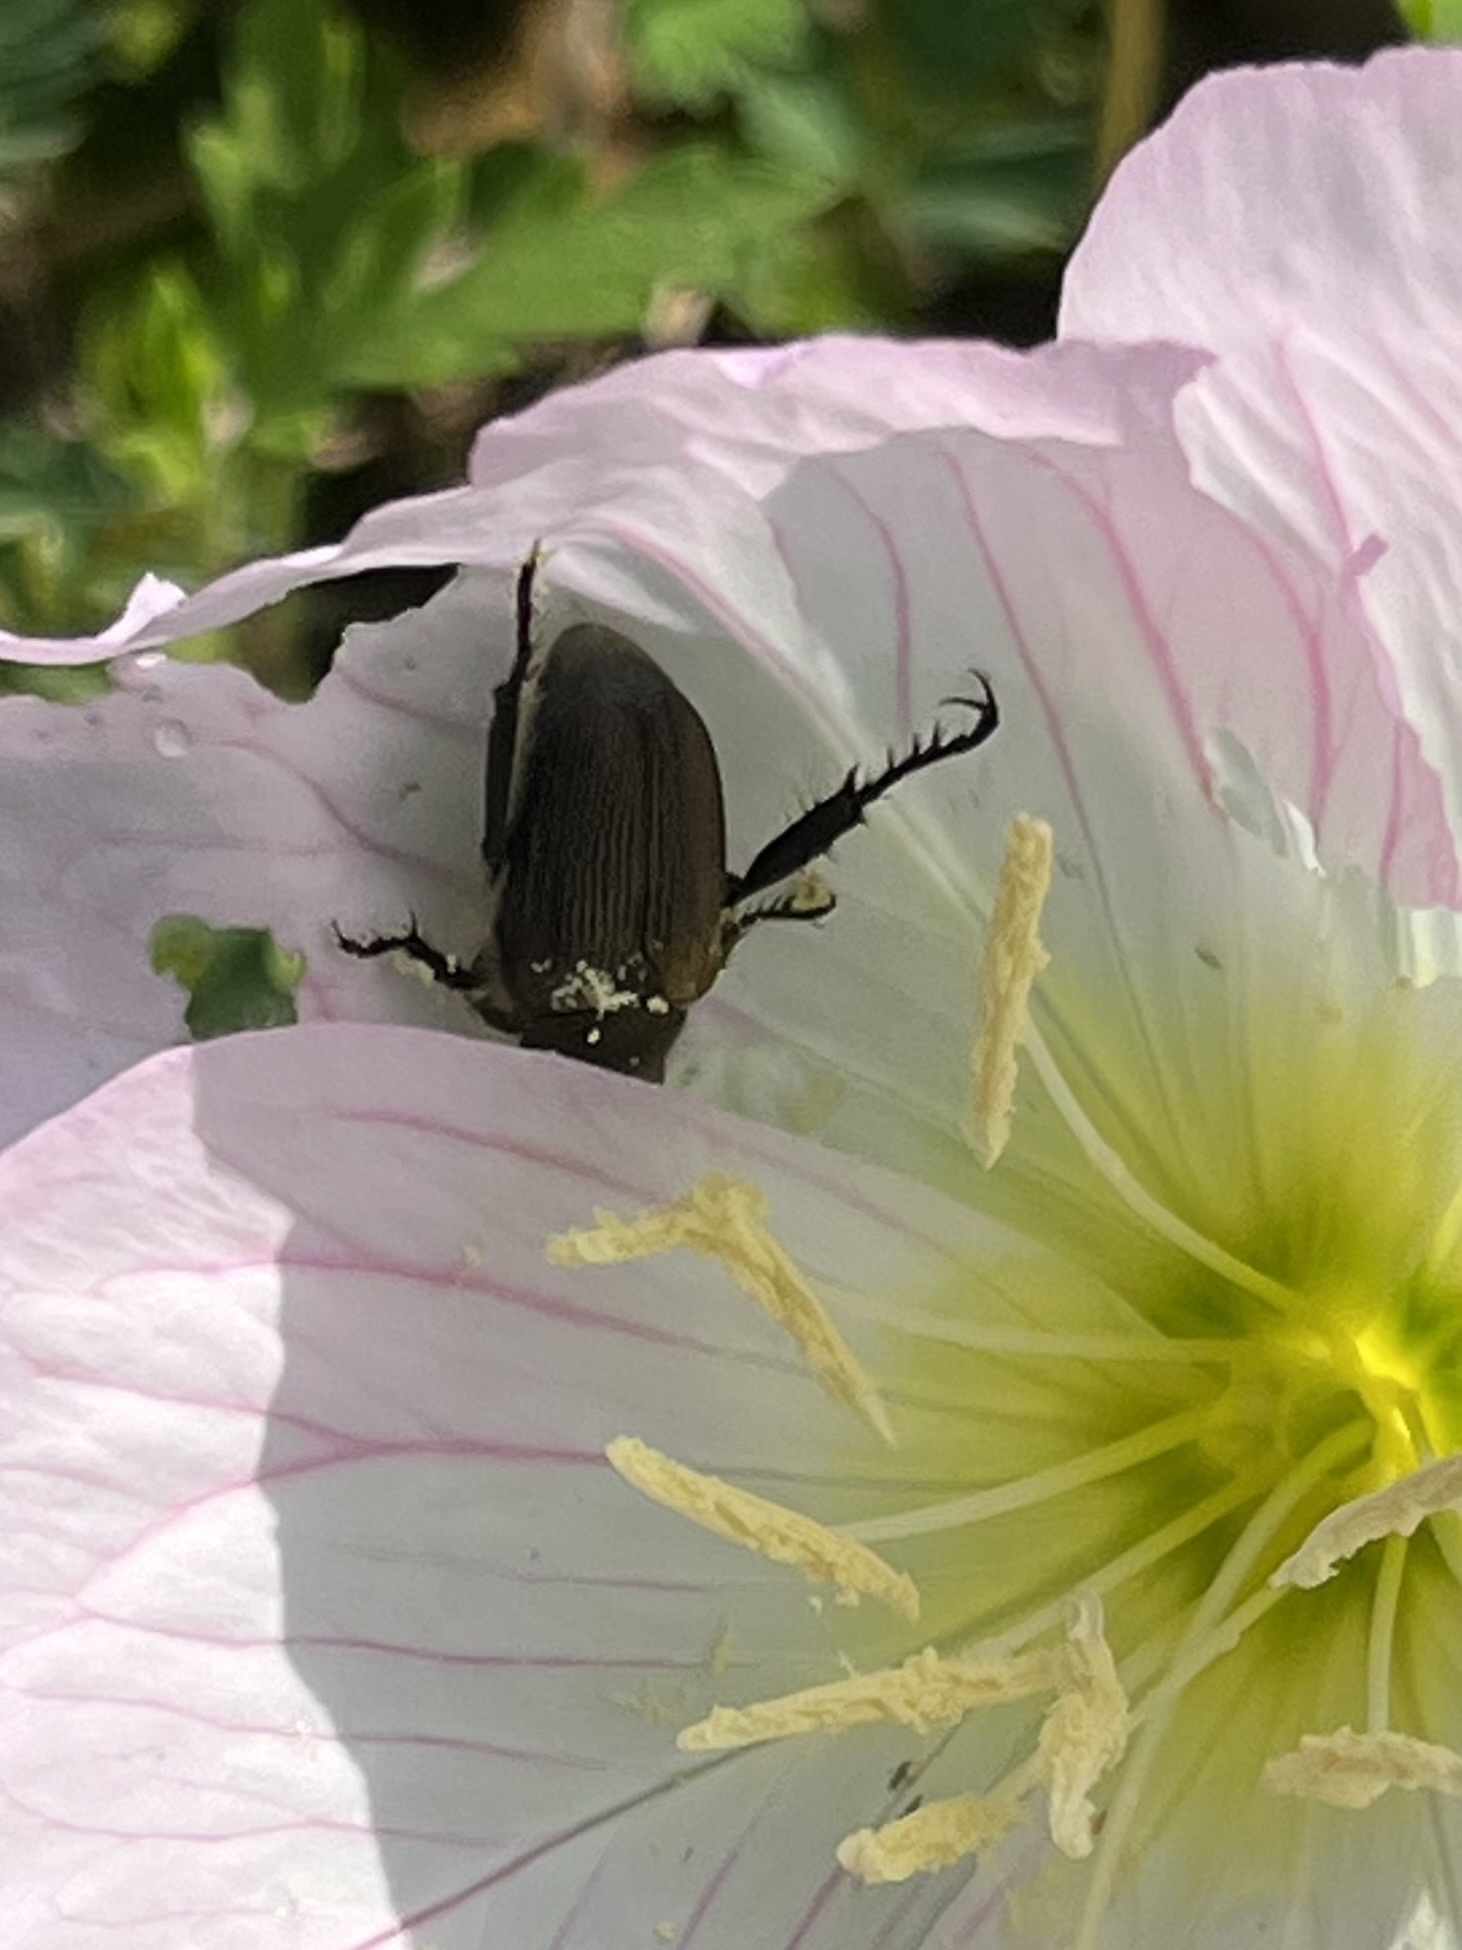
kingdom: Animalia
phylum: Arthropoda
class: Insecta
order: Coleoptera
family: Scarabaeidae
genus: Strigoderma
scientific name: Strigoderma arbicola
